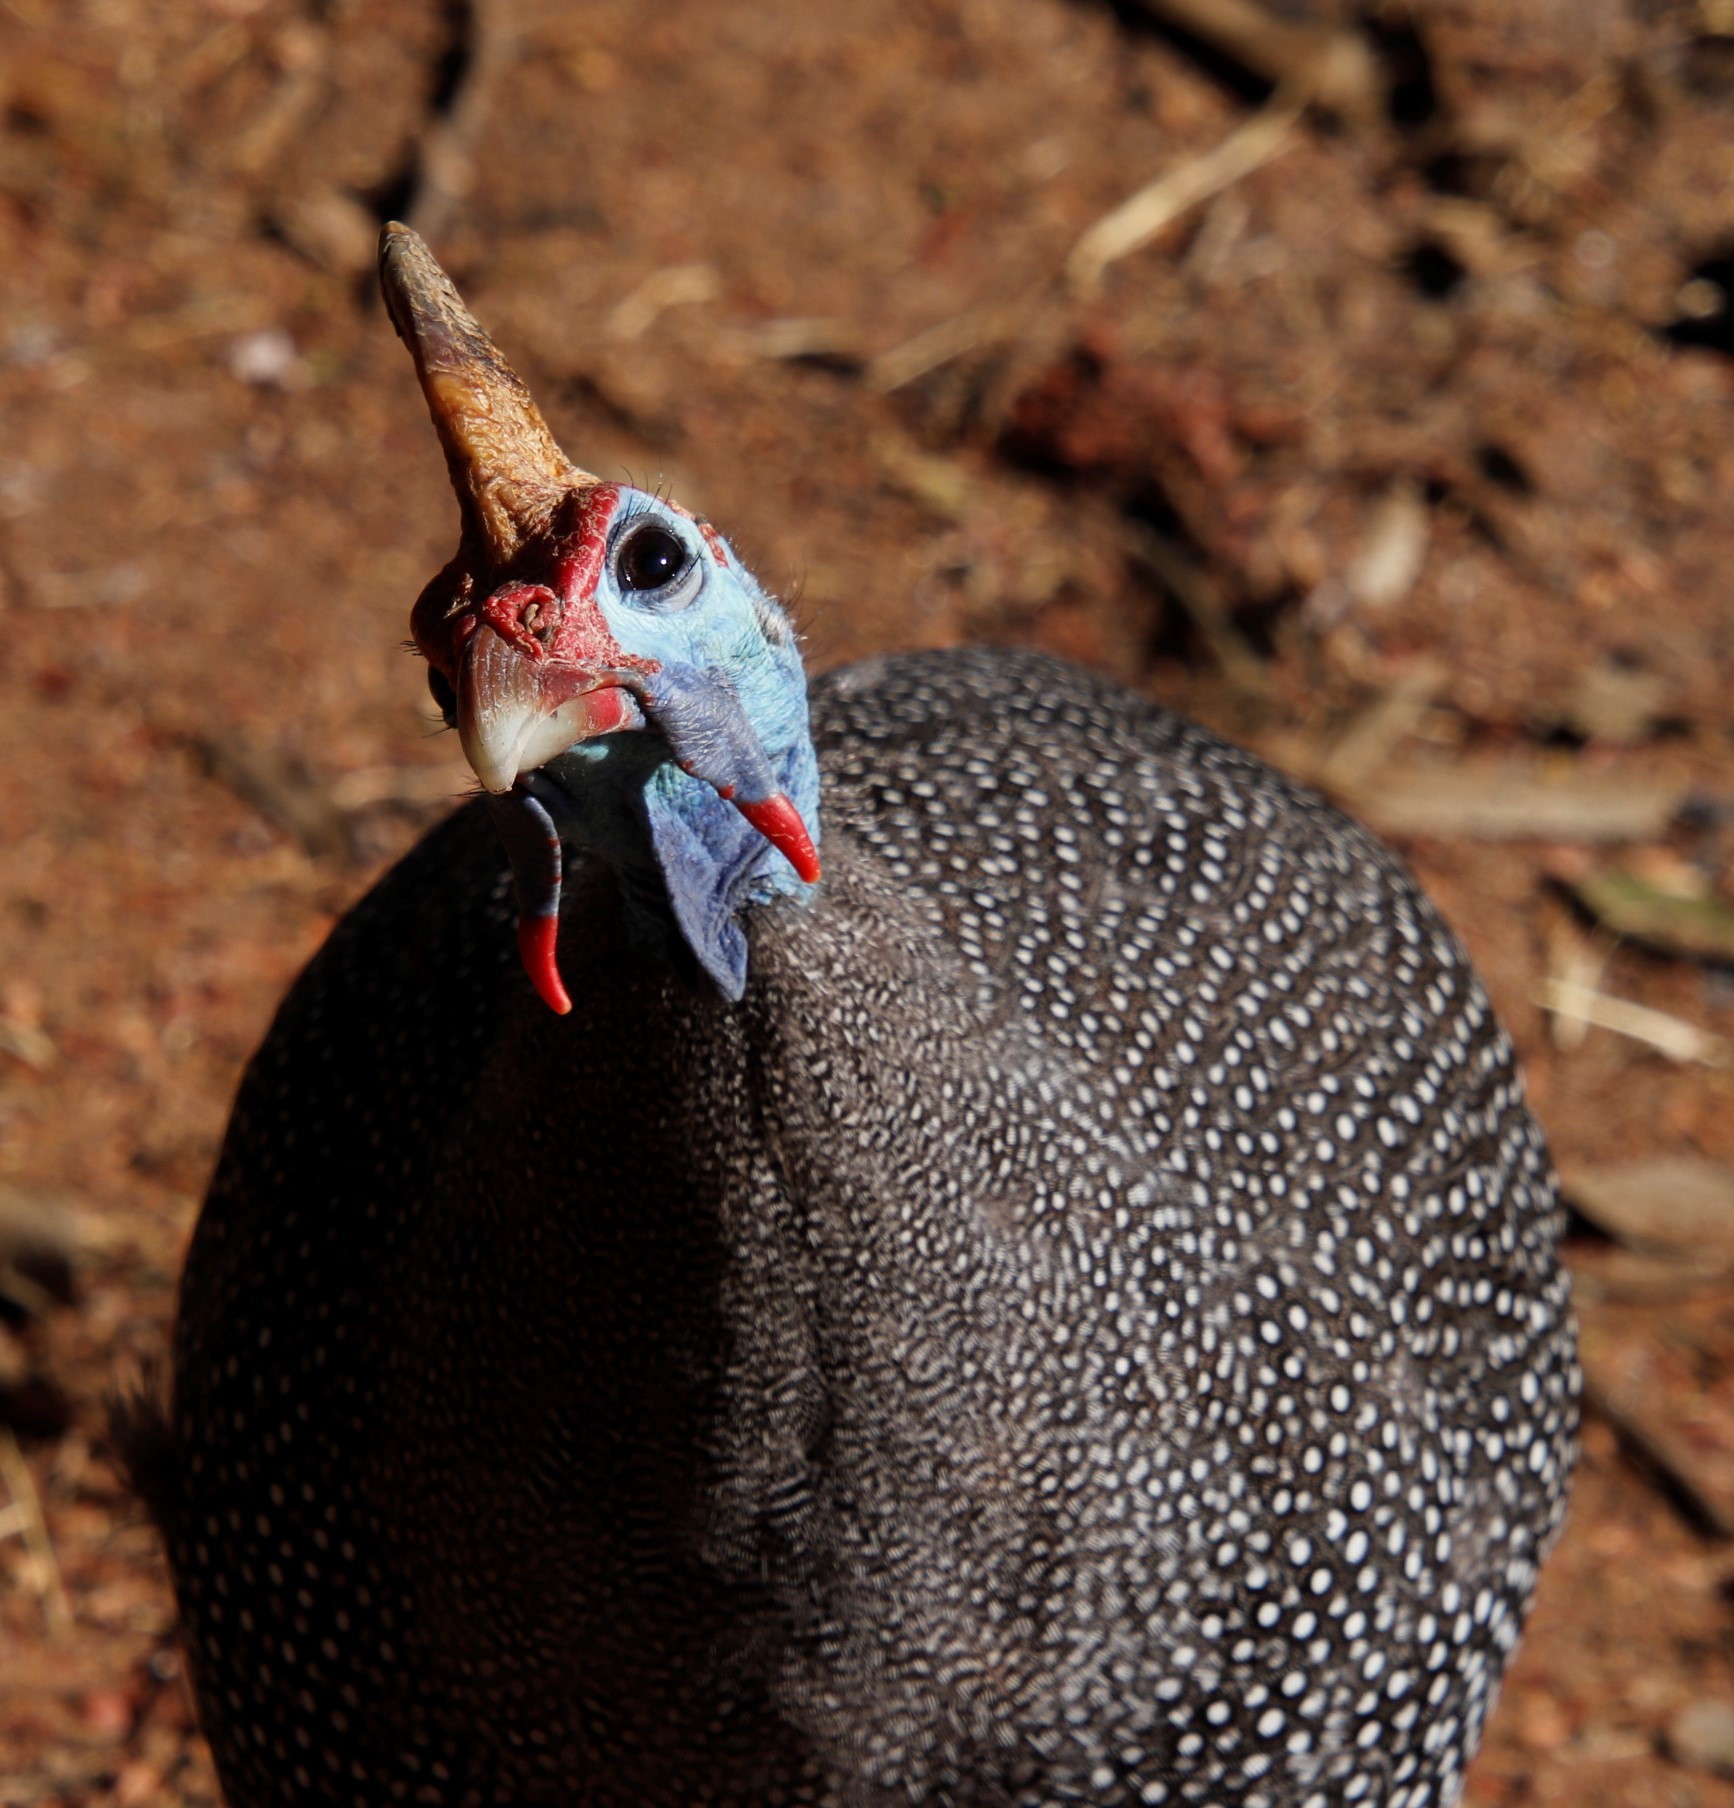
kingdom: Animalia
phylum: Chordata
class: Aves
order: Galliformes
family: Numididae
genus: Numida
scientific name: Numida meleagris
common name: Helmeted guineafowl
